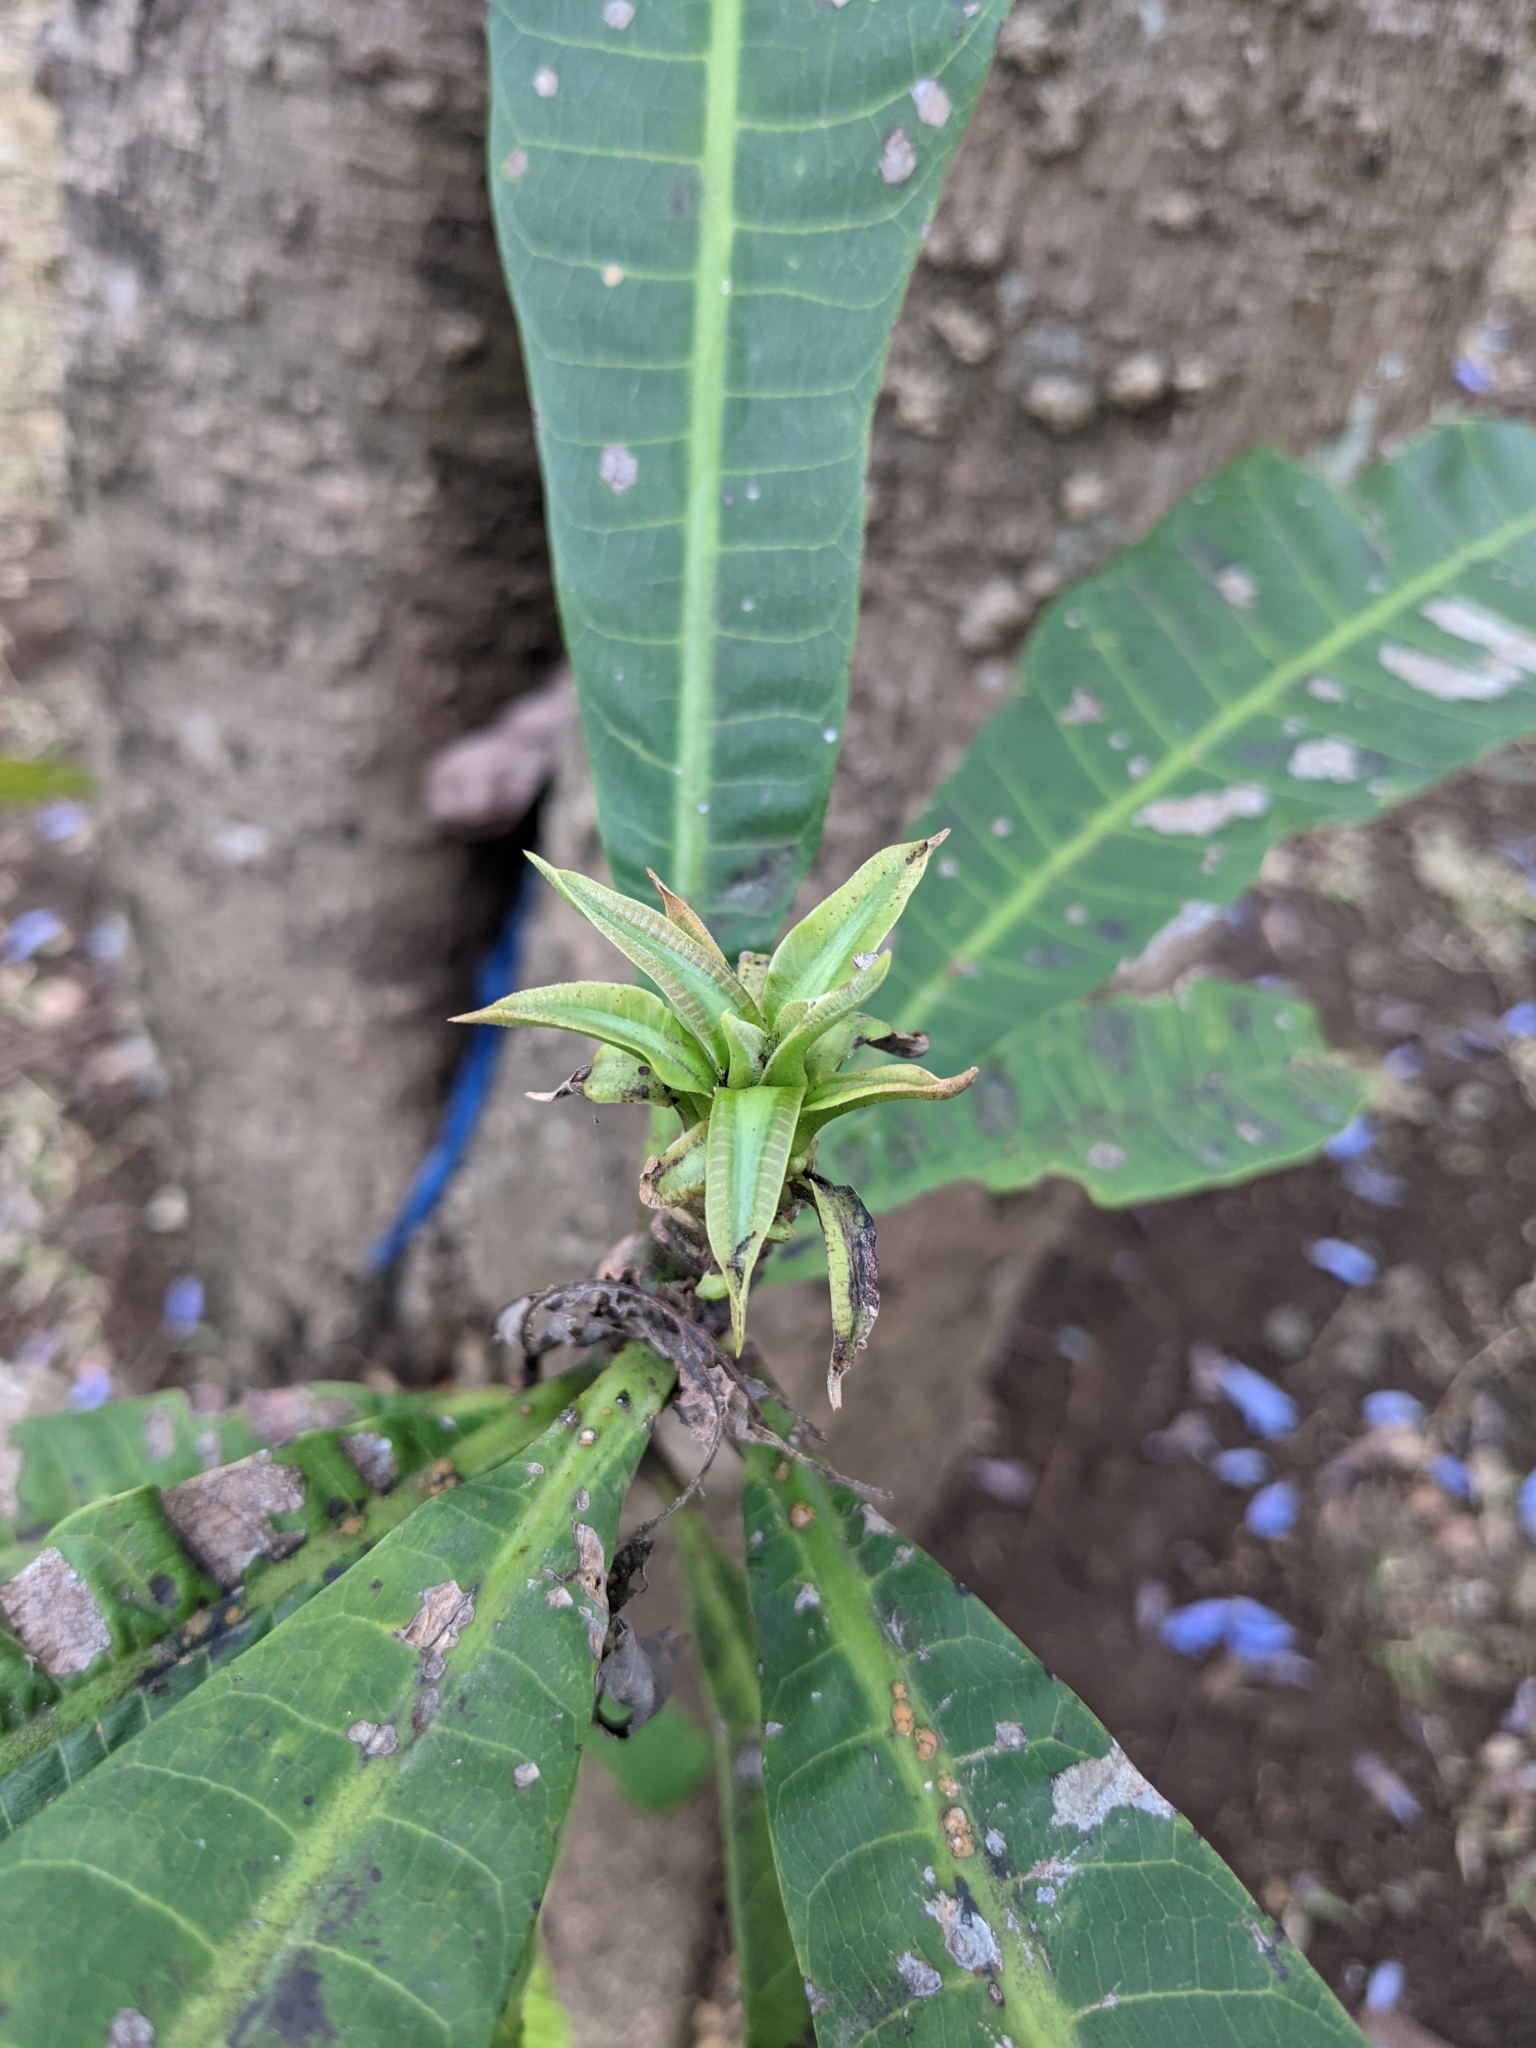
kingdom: Plantae
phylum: Tracheophyta
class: Magnoliopsida
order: Sapindales
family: Anacardiaceae
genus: Anacardium
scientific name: Anacardium excelsum
